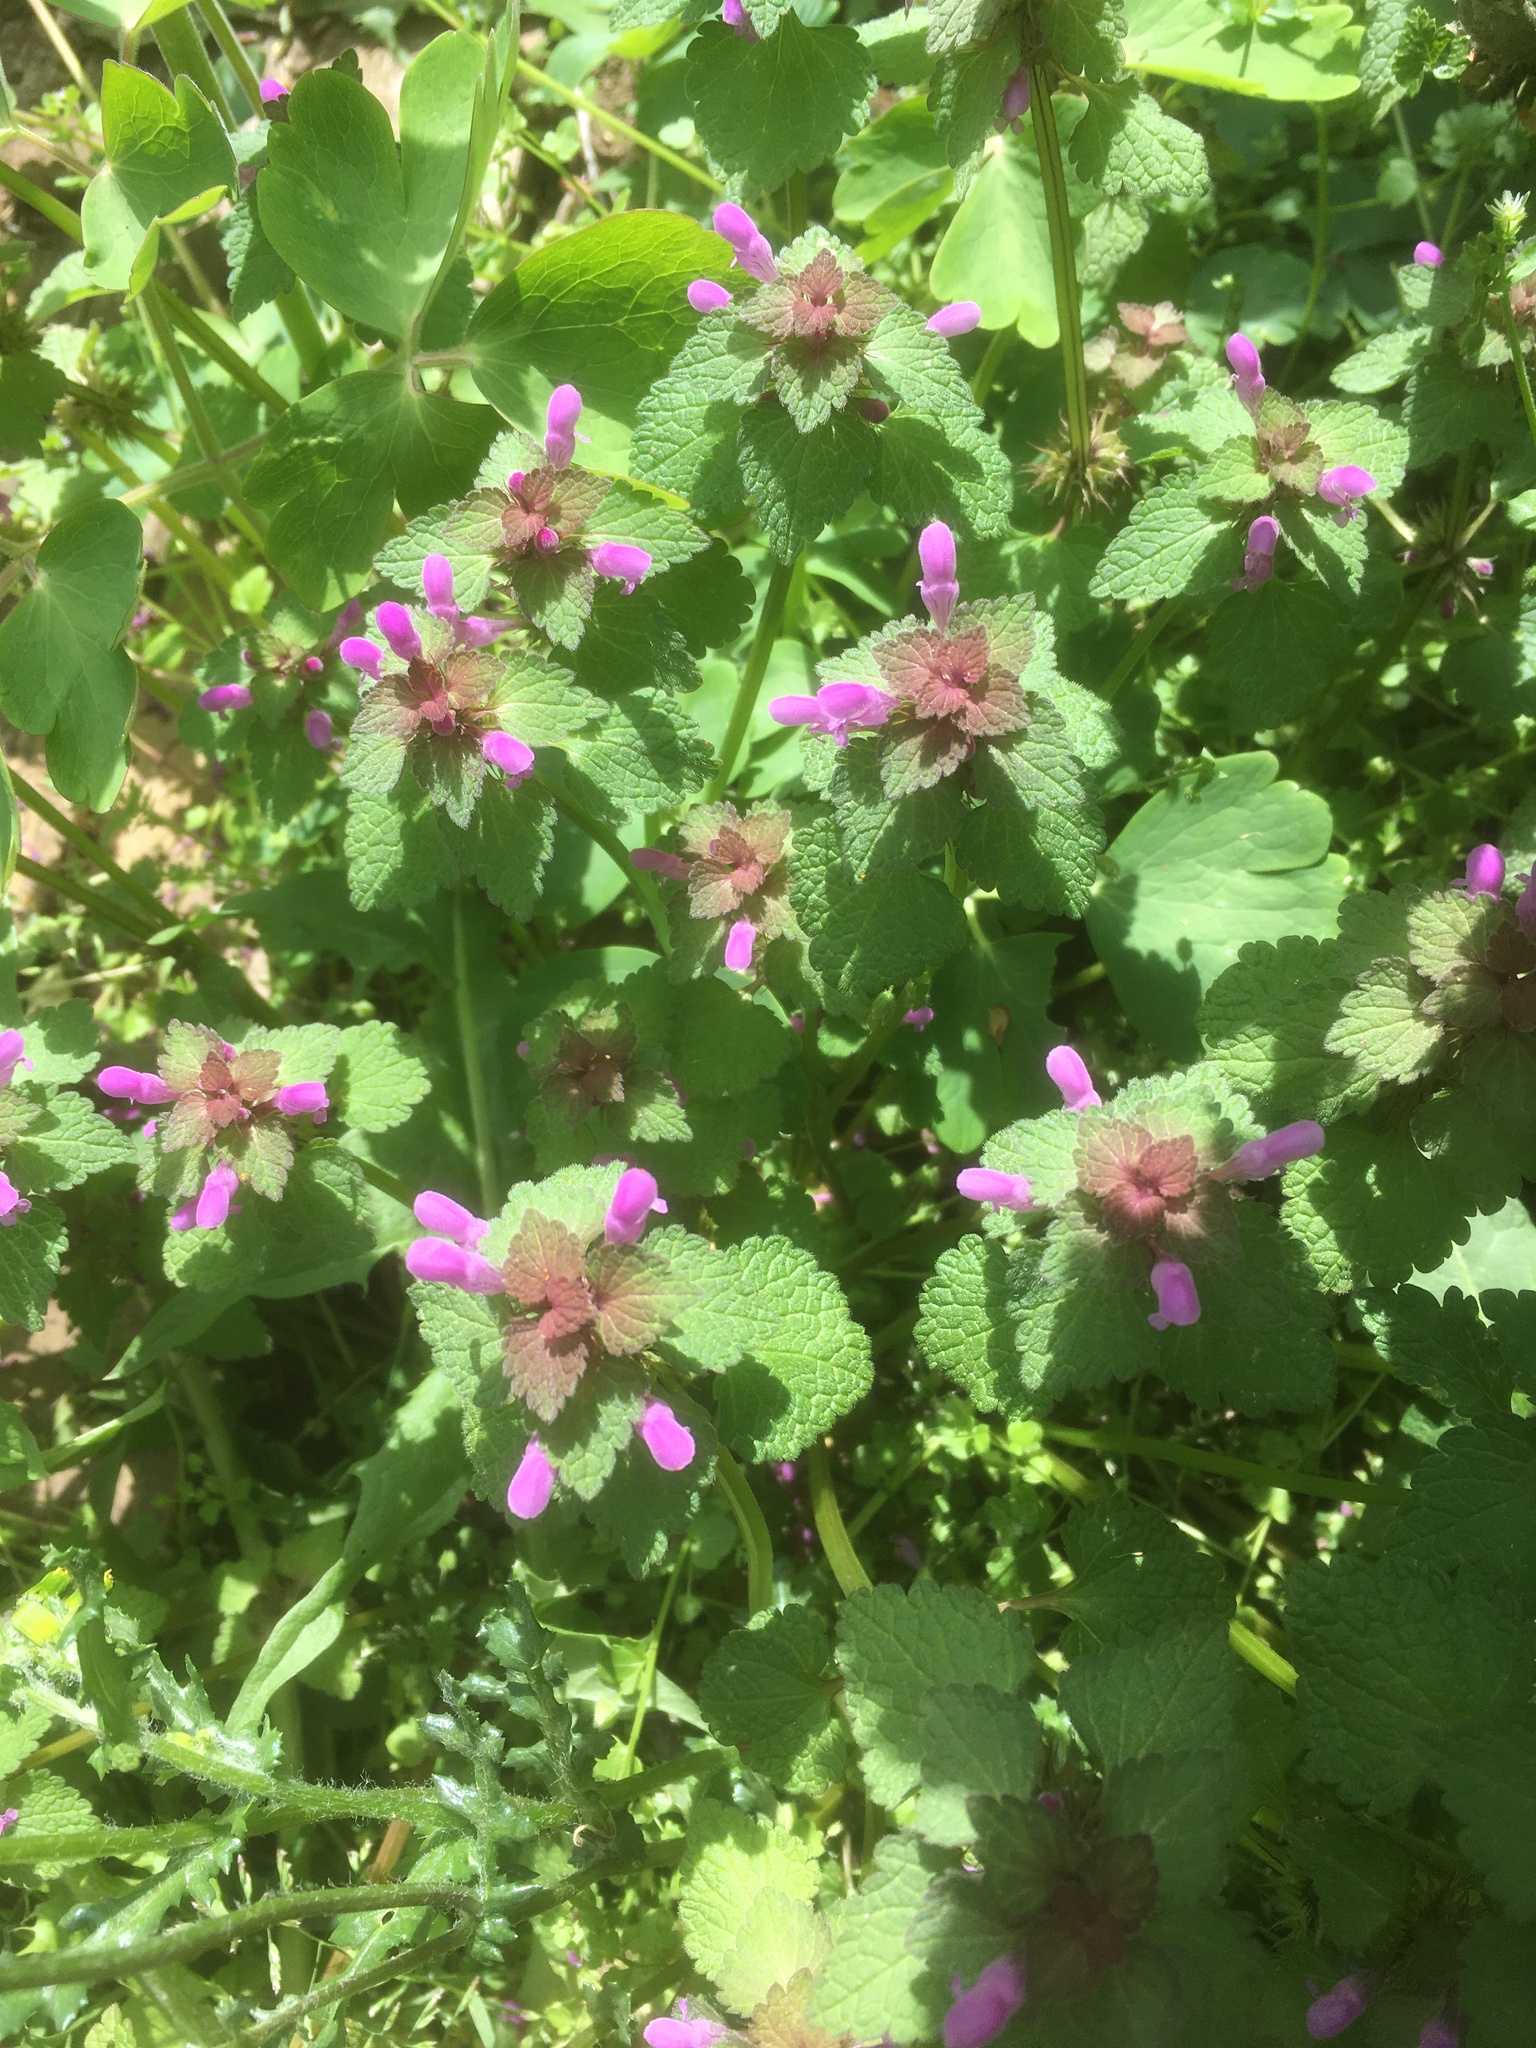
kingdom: Plantae
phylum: Tracheophyta
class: Magnoliopsida
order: Lamiales
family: Lamiaceae
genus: Lamium
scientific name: Lamium purpureum
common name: Red dead-nettle
